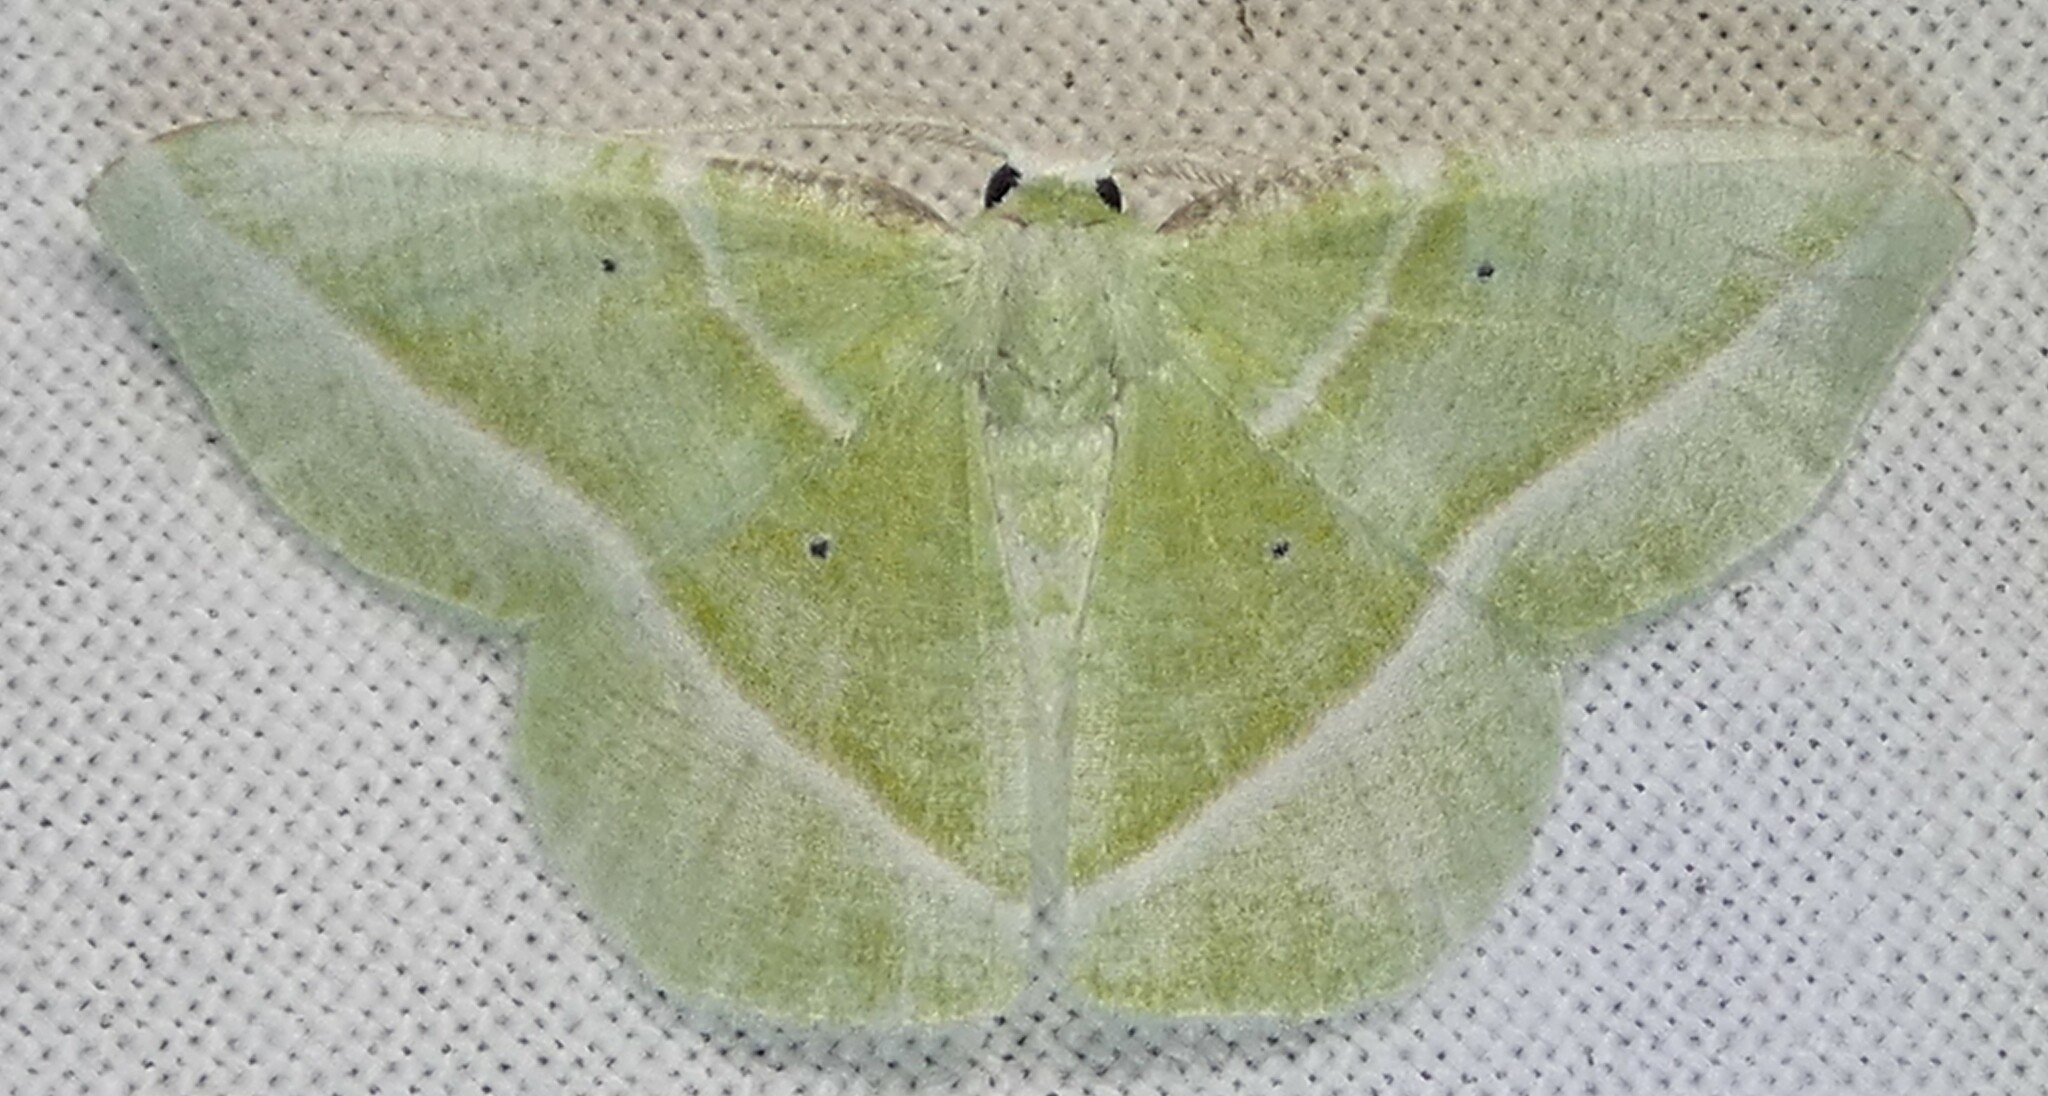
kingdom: Animalia
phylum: Arthropoda
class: Insecta
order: Lepidoptera
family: Geometridae
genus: Dichorda
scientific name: Dichorda iridaria
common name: Showy emerald
